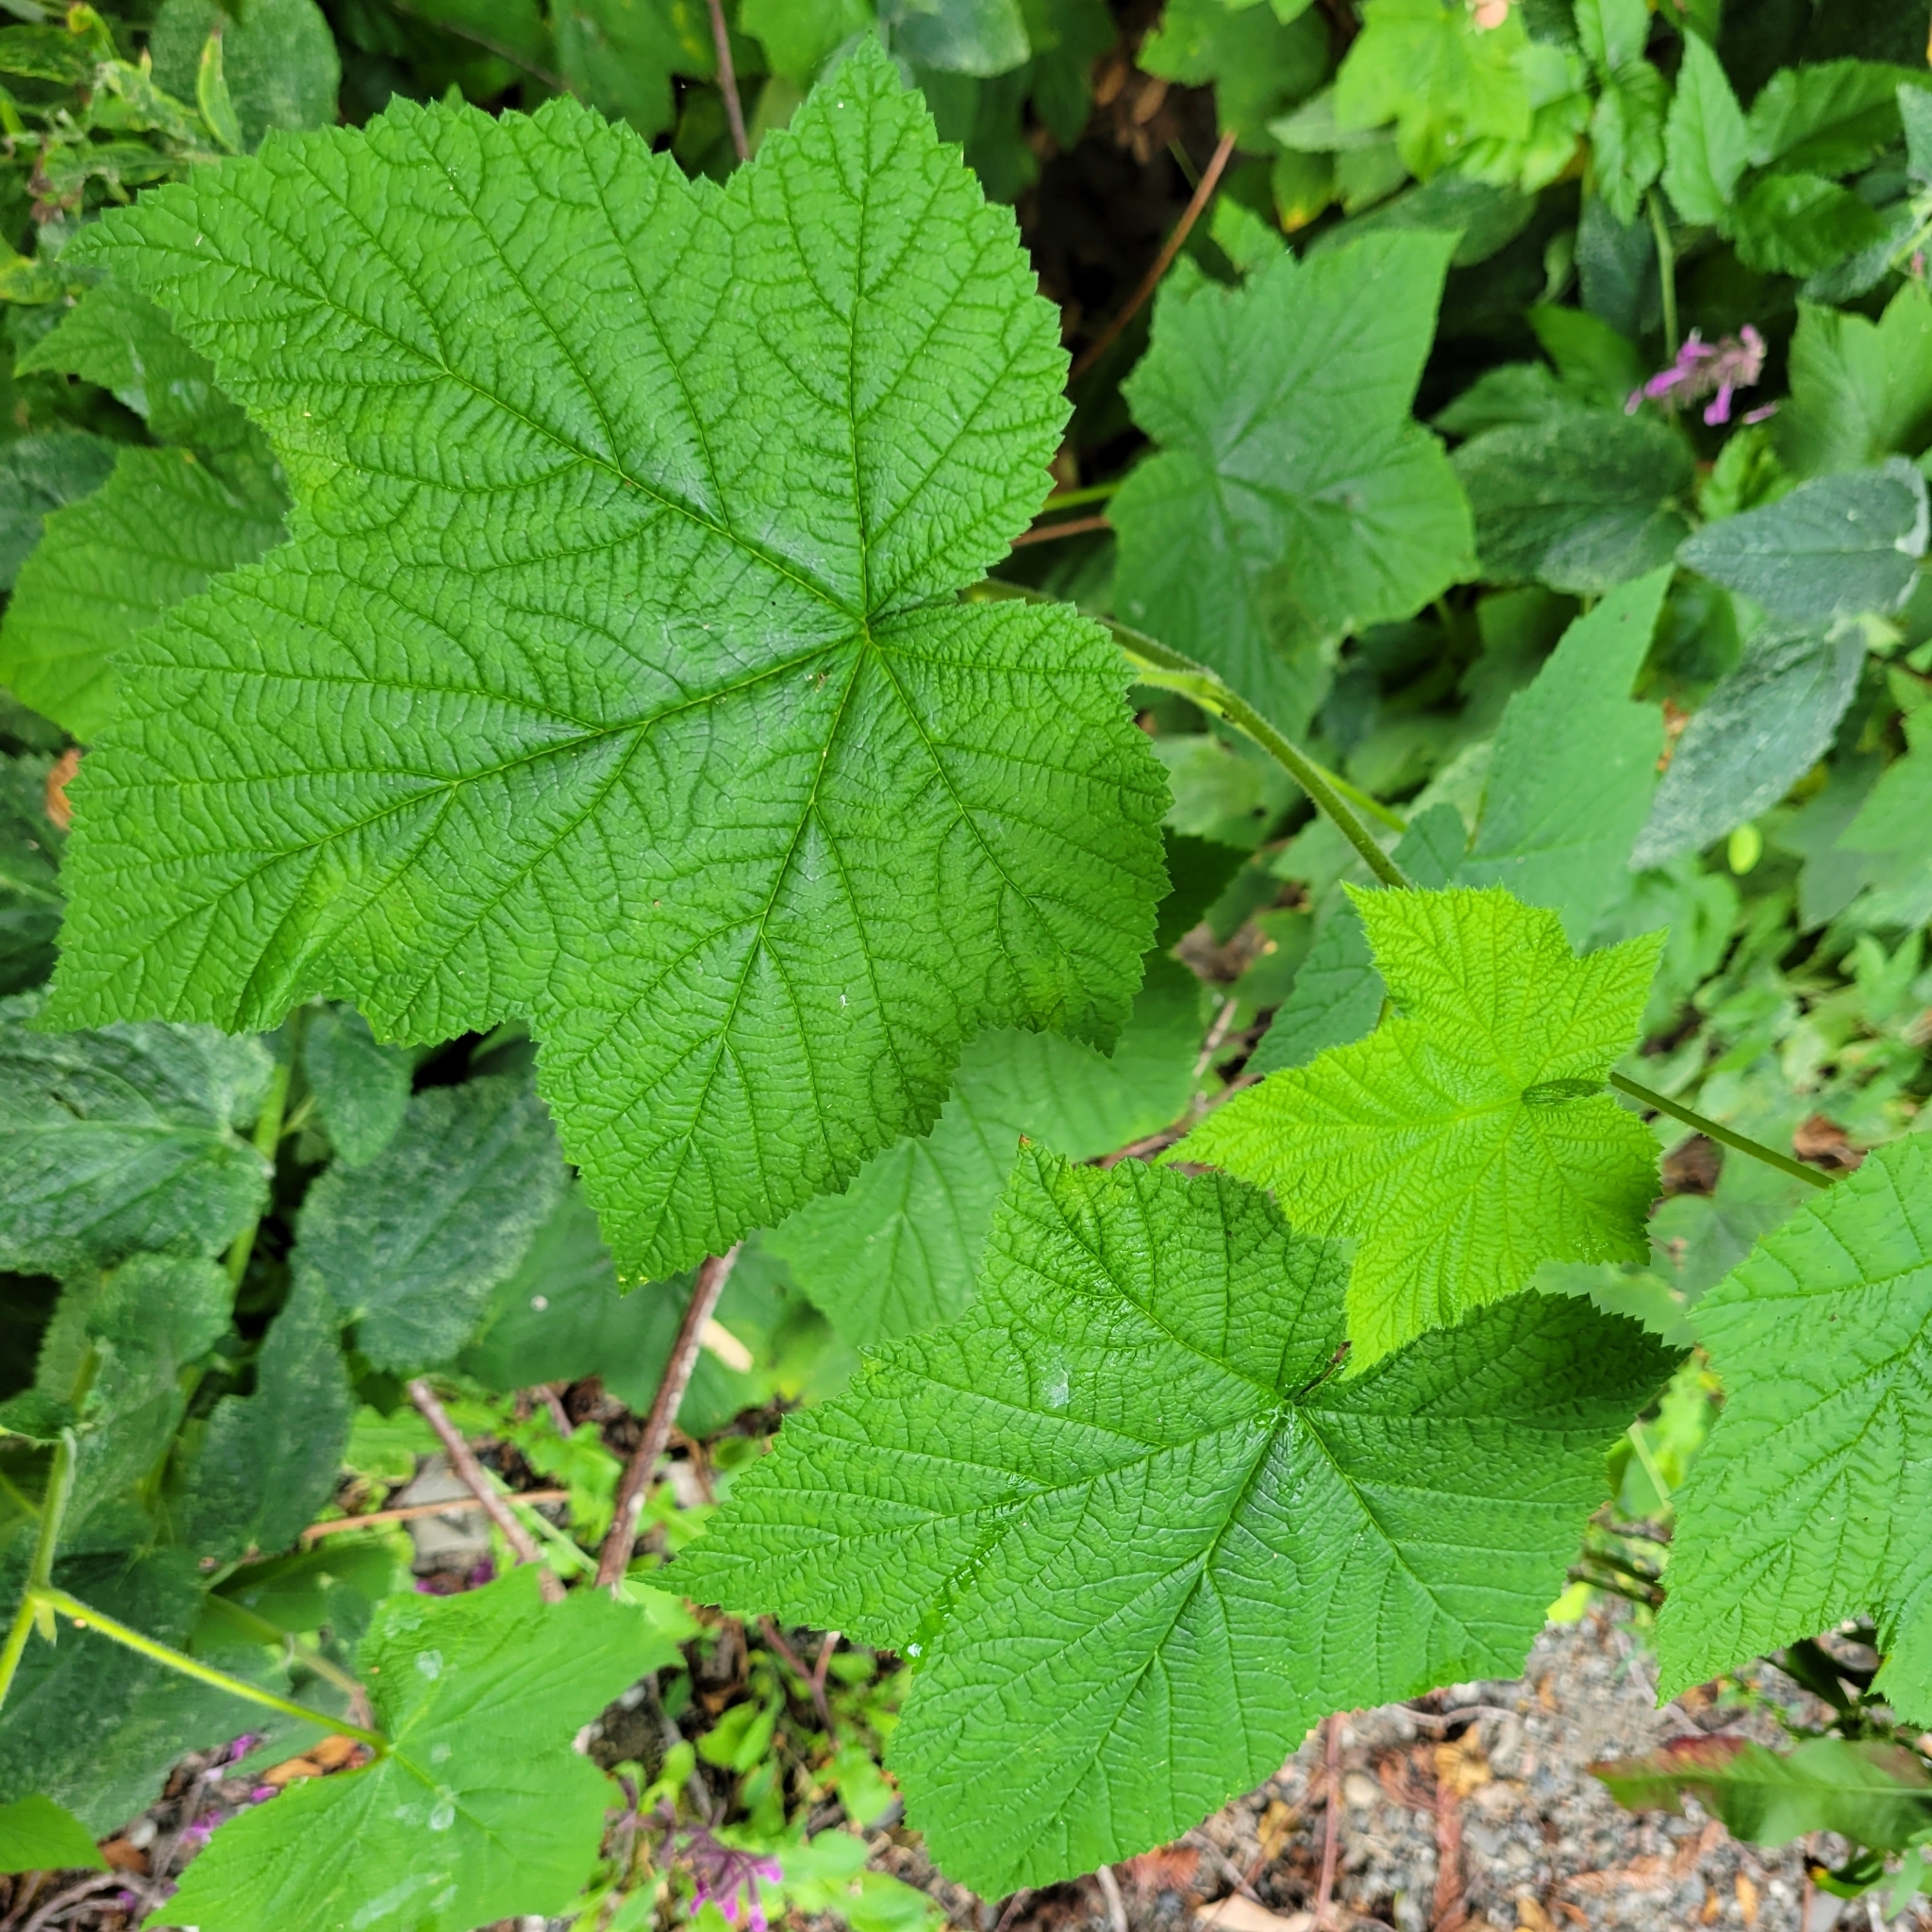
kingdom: Plantae
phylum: Tracheophyta
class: Magnoliopsida
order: Rosales
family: Rosaceae
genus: Rubus
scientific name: Rubus parviflorus
